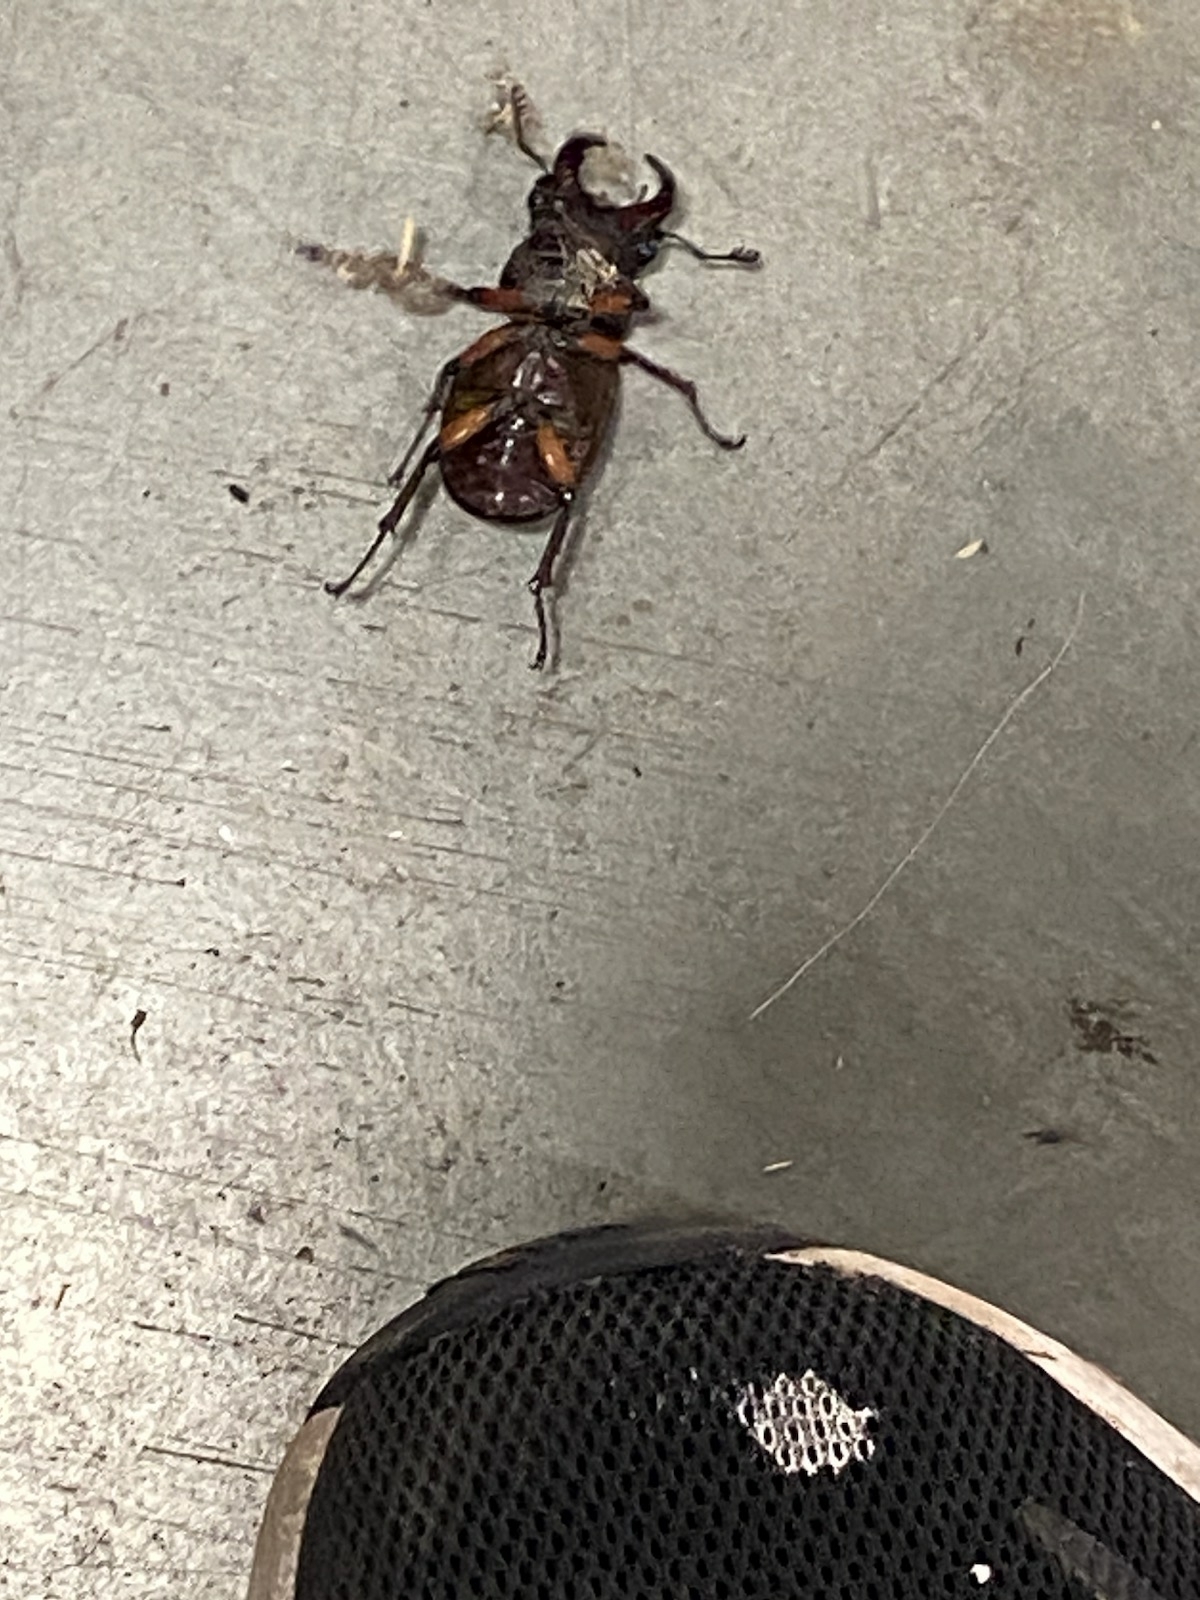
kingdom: Animalia
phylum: Arthropoda
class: Insecta
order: Coleoptera
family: Lucanidae
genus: Lucanus
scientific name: Lucanus capreolus
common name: Stag beetle
